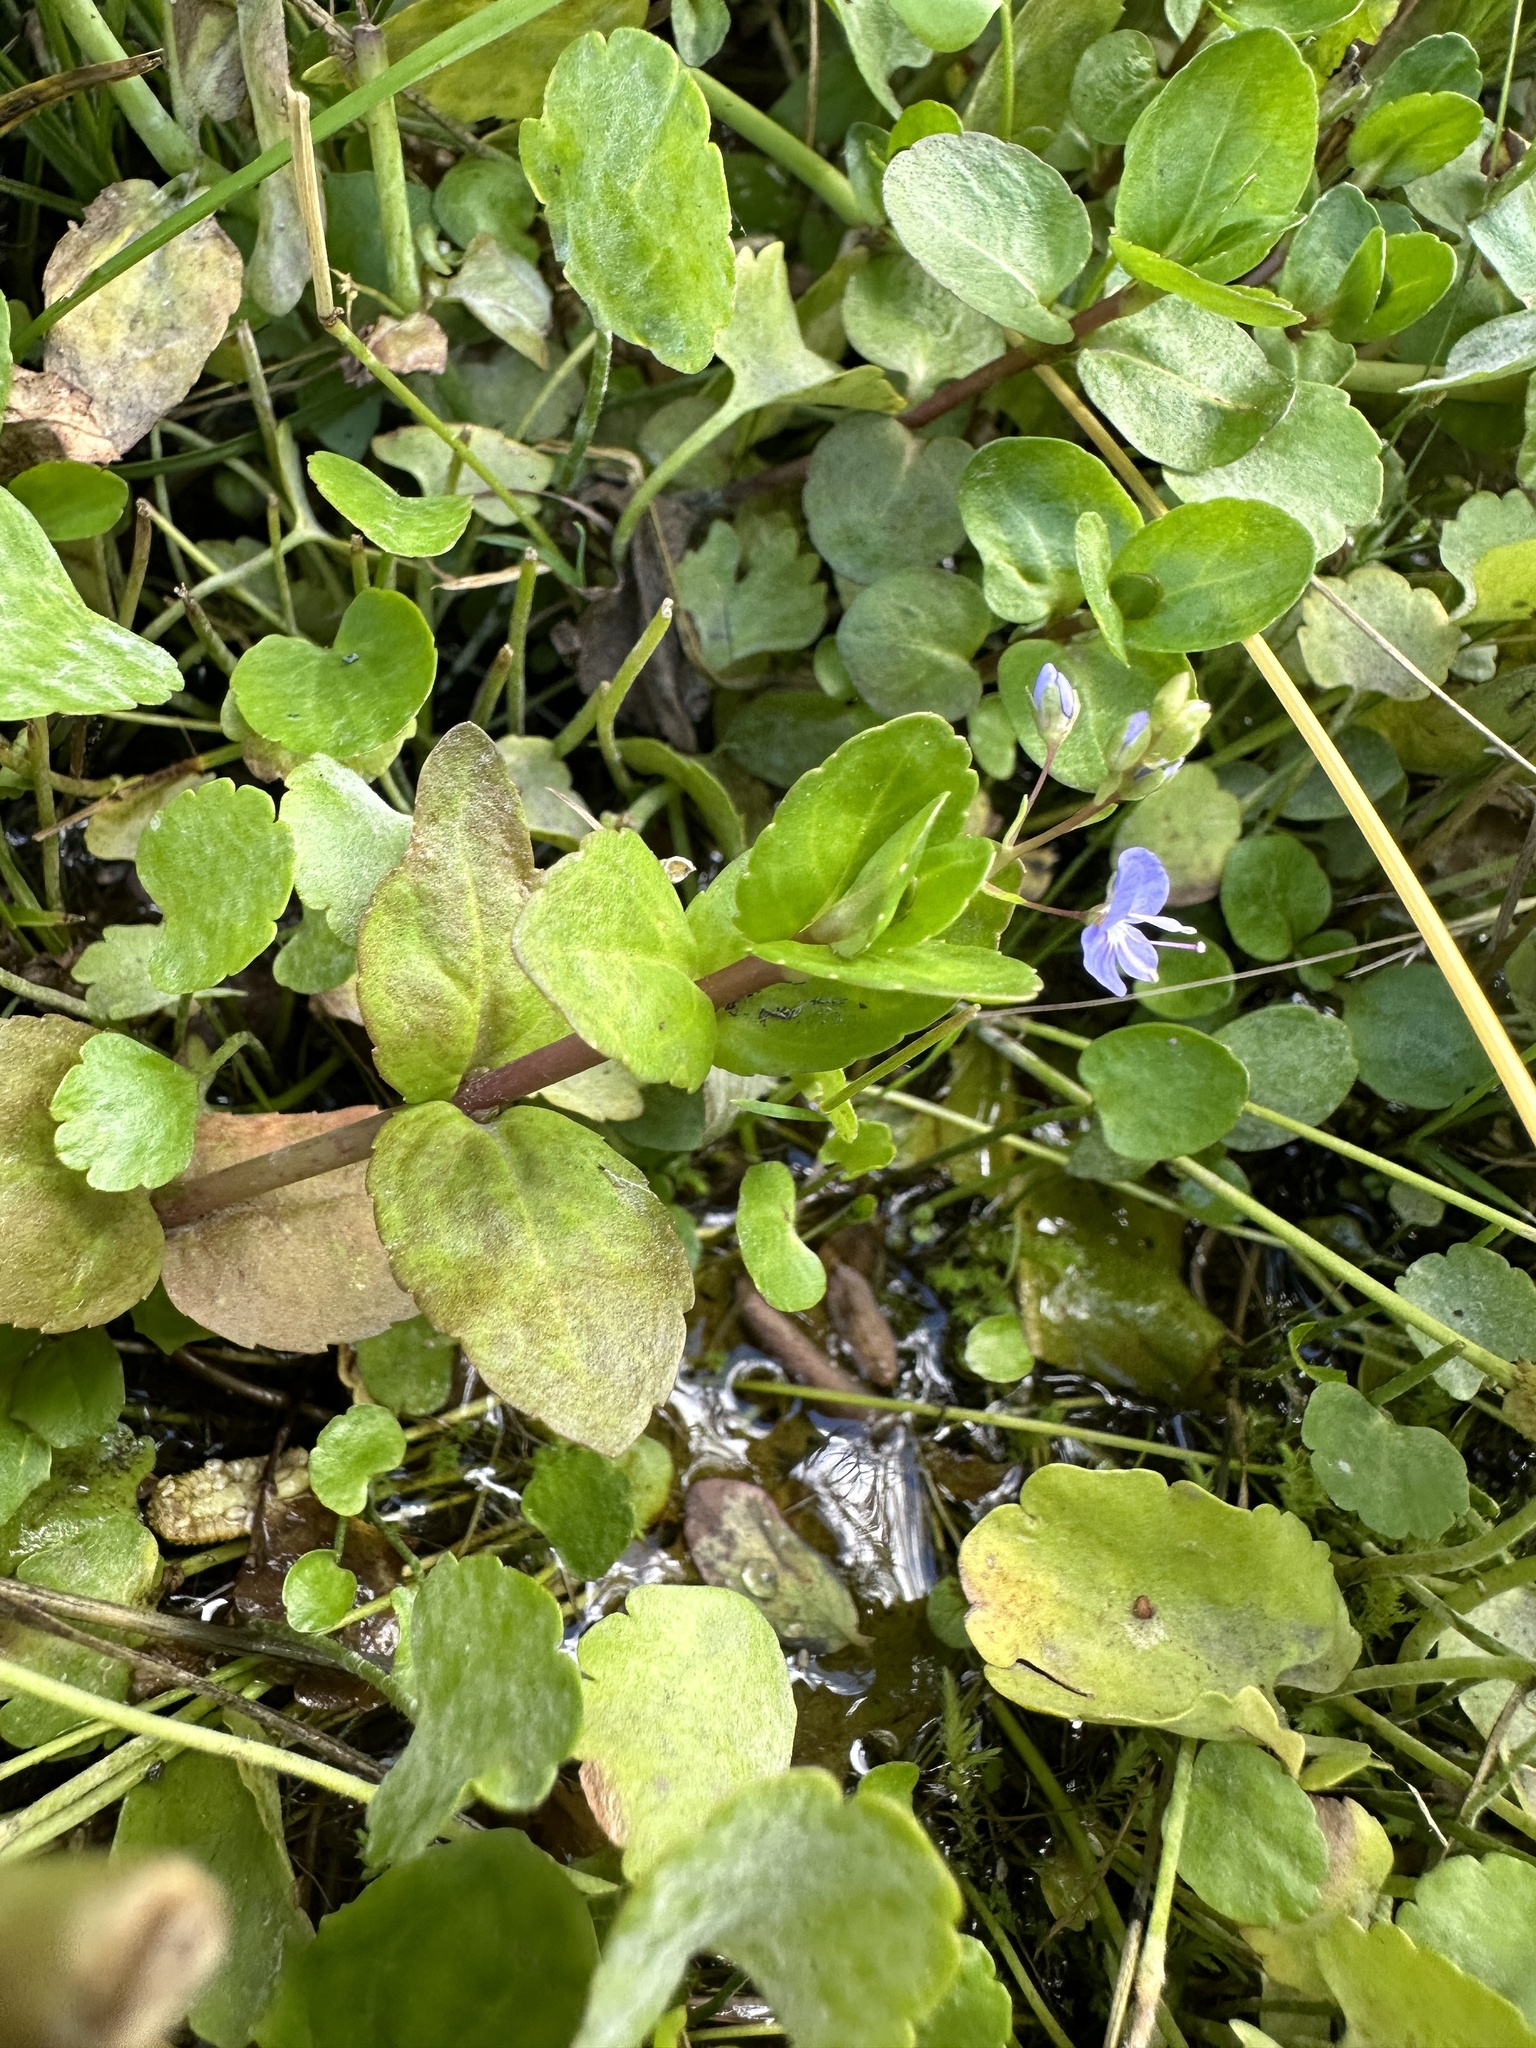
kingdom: Plantae
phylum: Tracheophyta
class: Magnoliopsida
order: Lamiales
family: Plantaginaceae
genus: Veronica
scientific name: Veronica americana
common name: American brooklime
